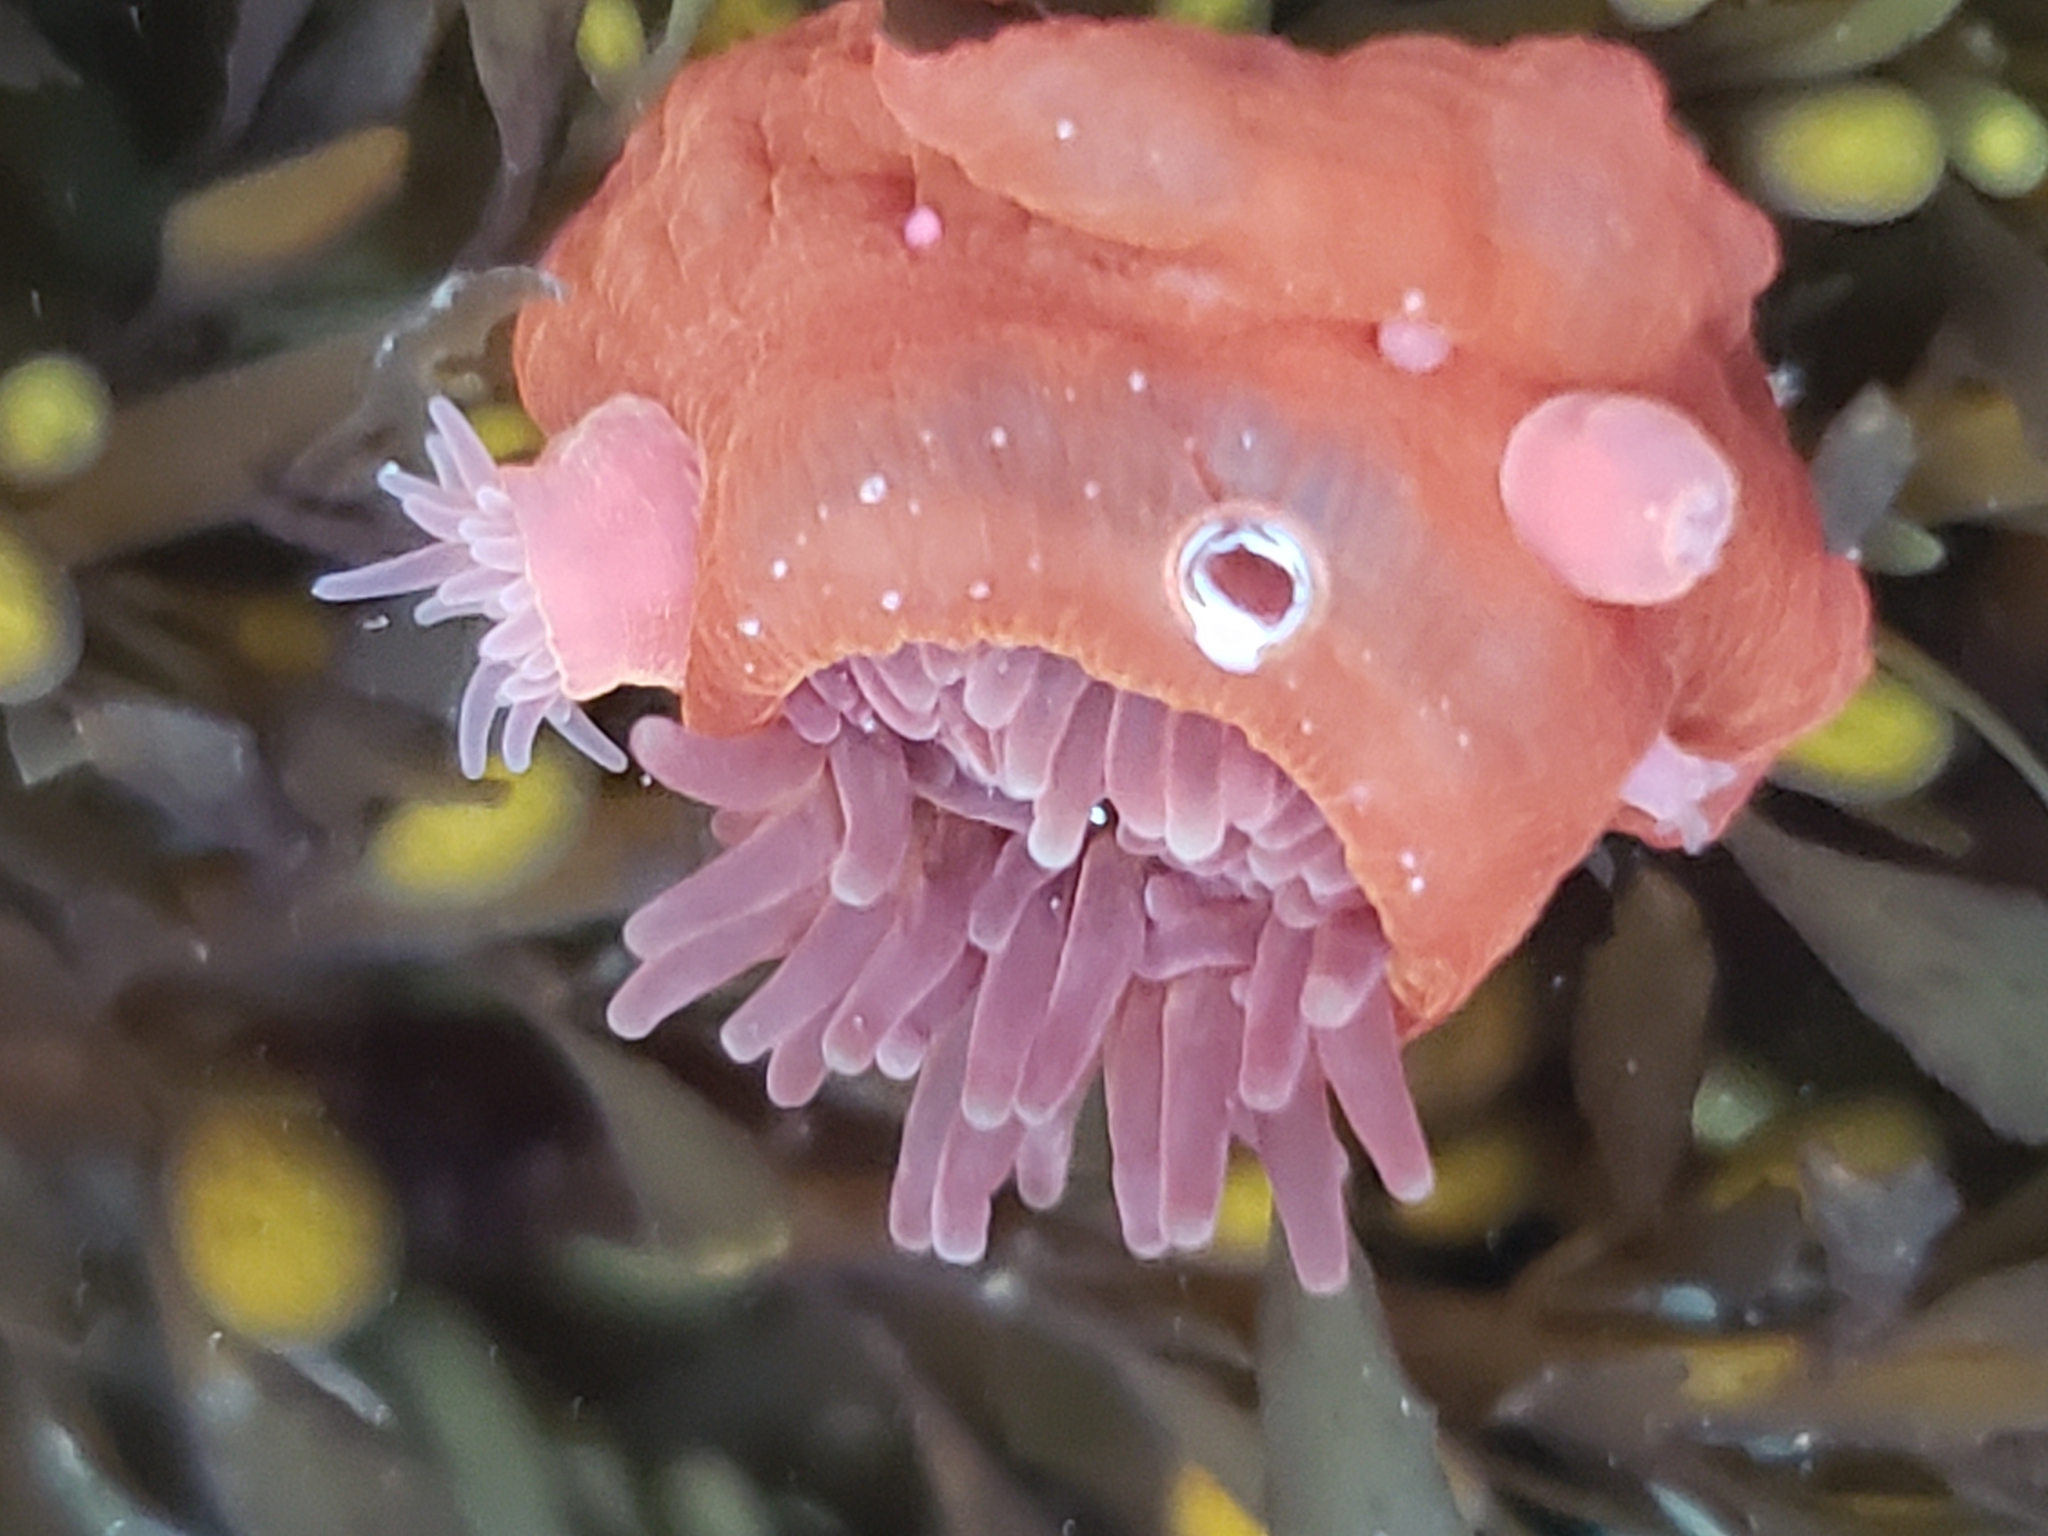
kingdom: Animalia
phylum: Cnidaria
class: Anthozoa
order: Actiniaria
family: Actiniidae
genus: Epiactis
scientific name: Epiactis prolifera
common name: Brooding anemone
